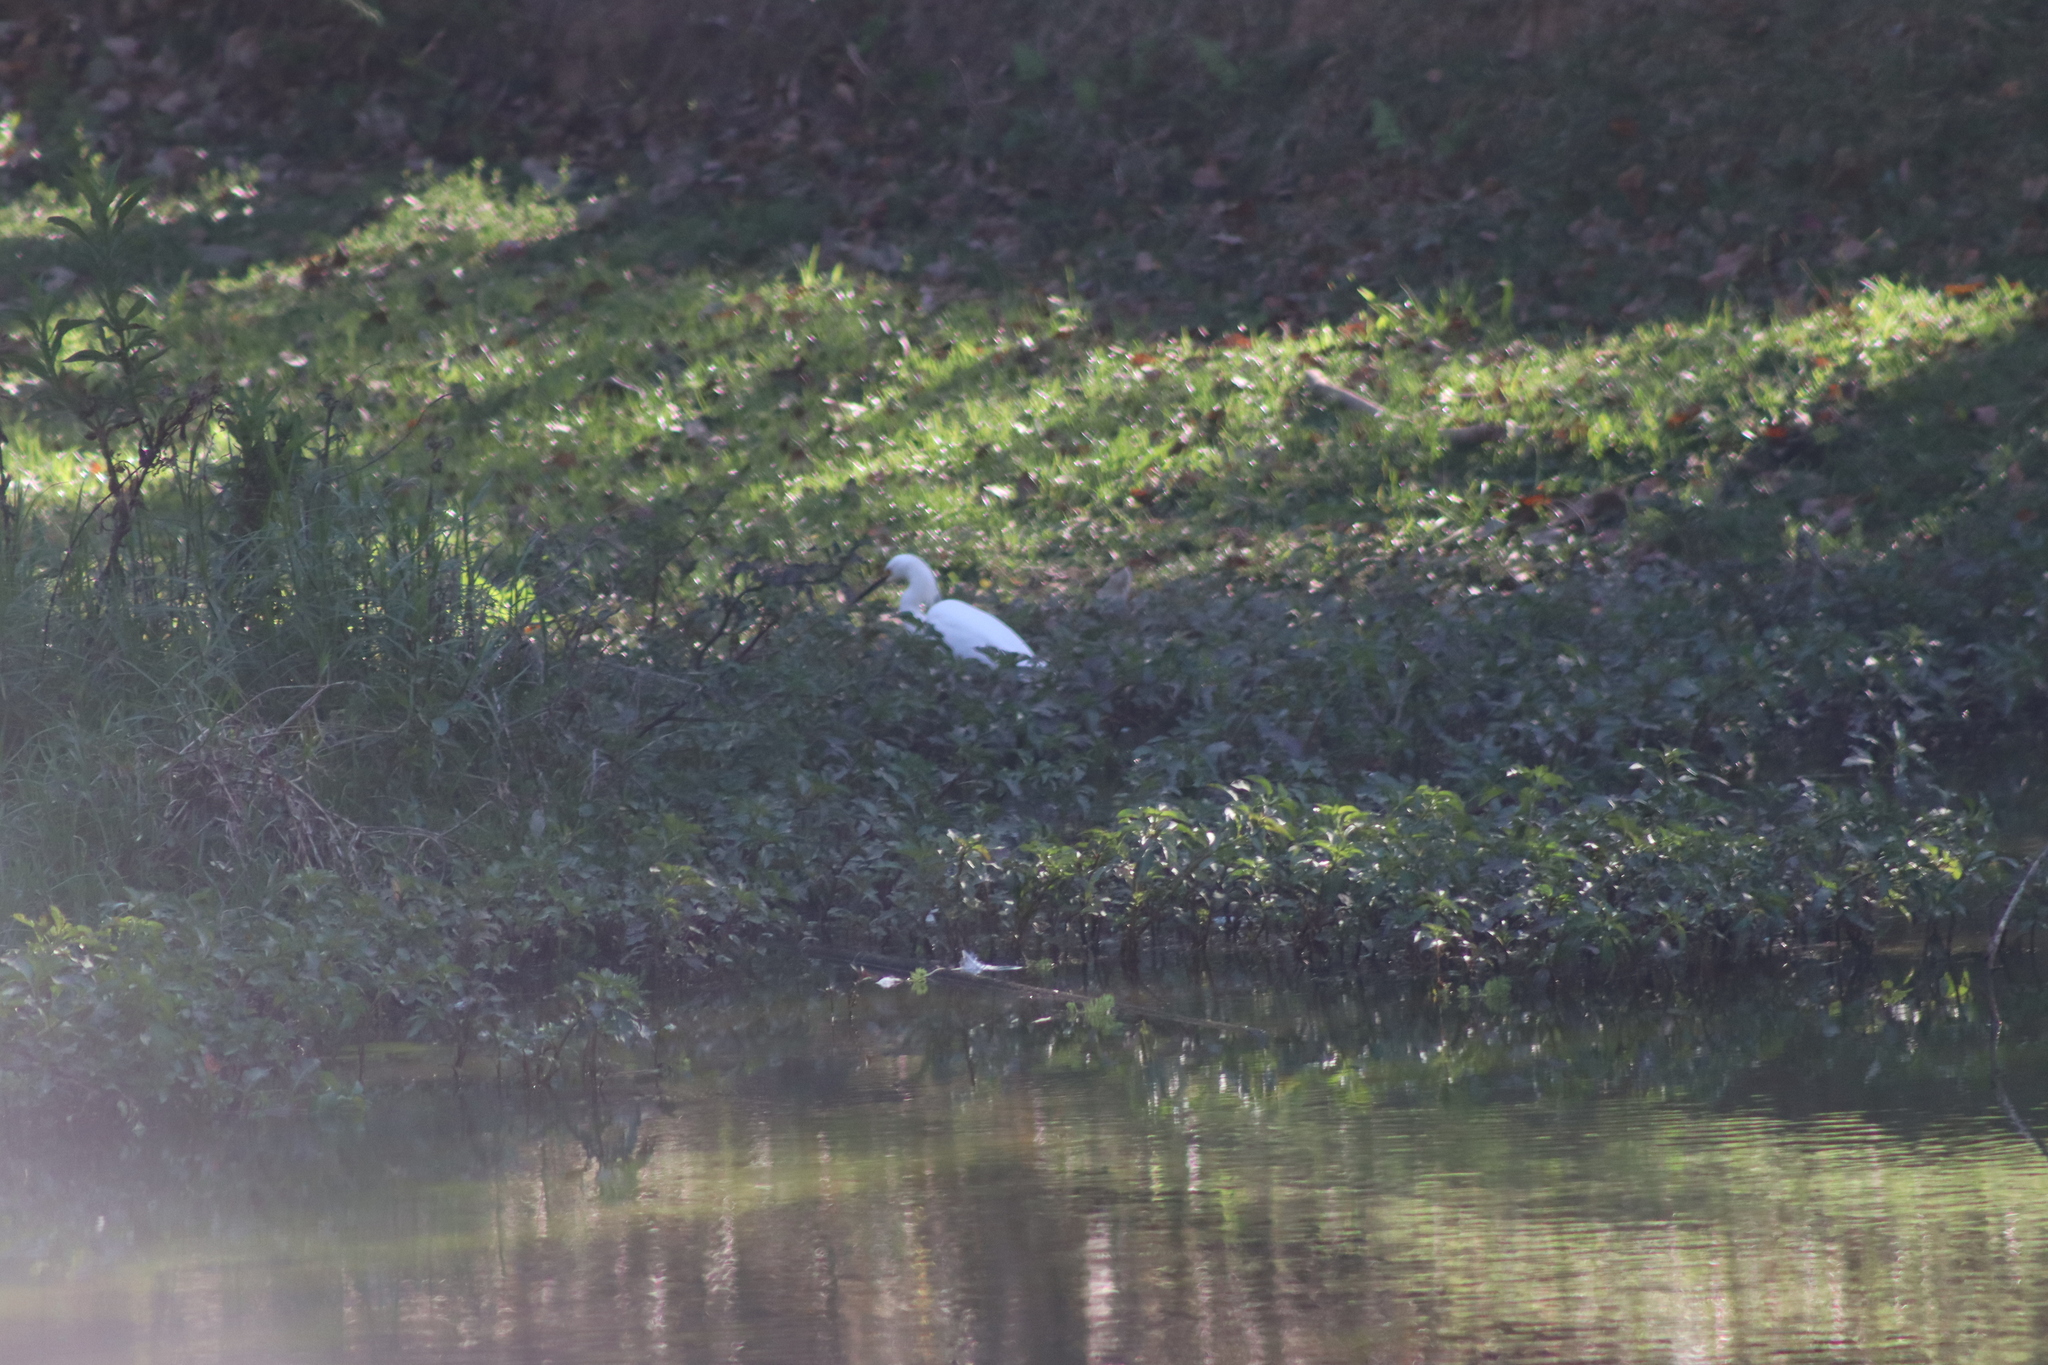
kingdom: Animalia
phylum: Chordata
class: Aves
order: Pelecaniformes
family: Ardeidae
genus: Egretta
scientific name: Egretta thula
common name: Snowy egret
